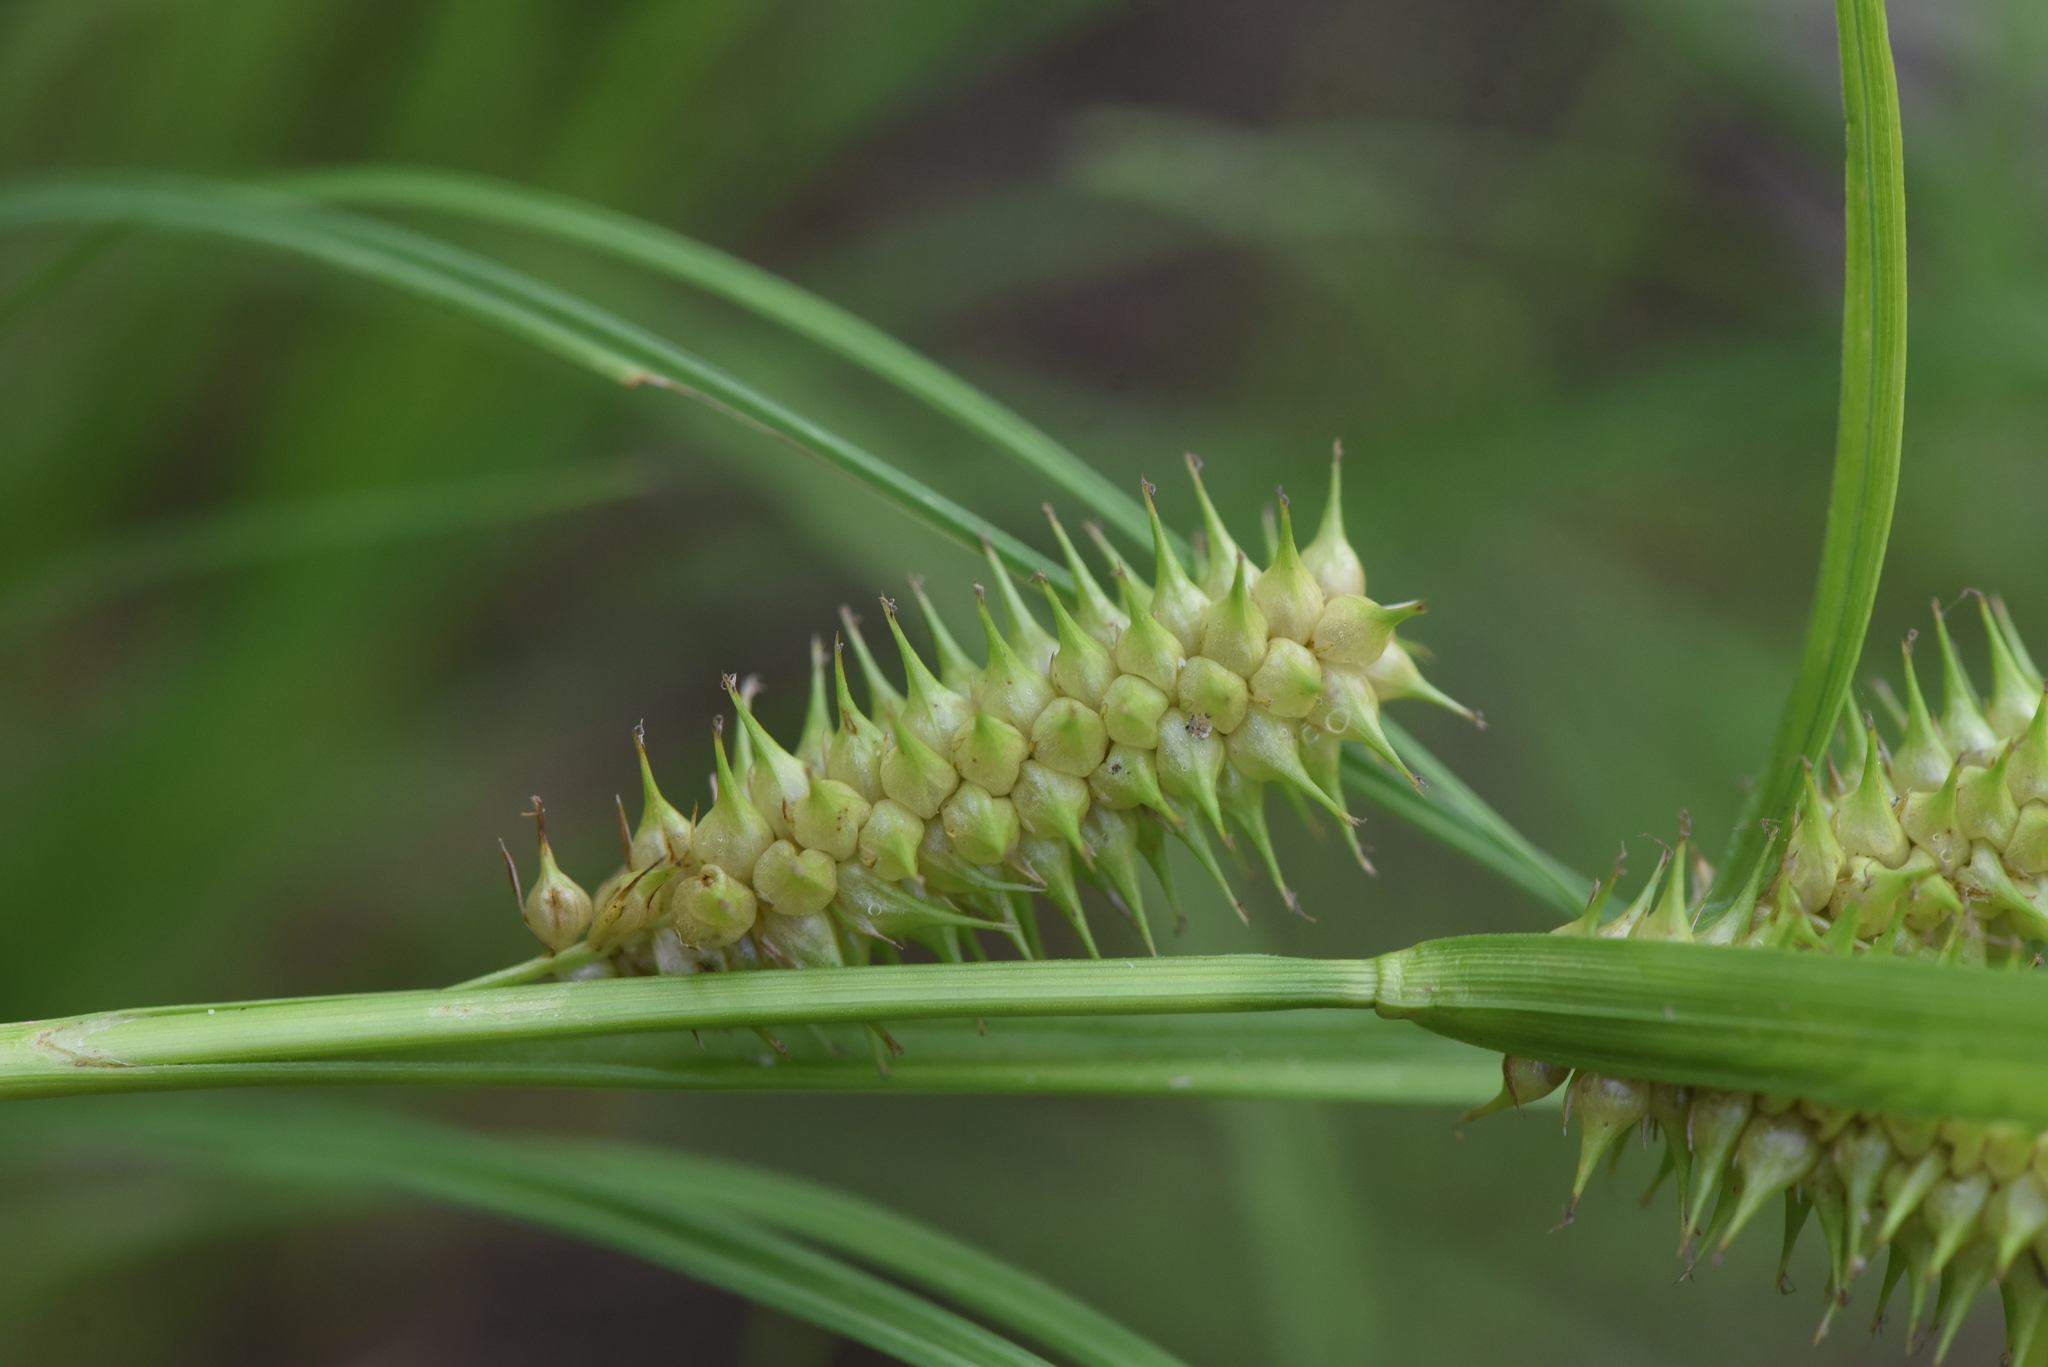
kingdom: Plantae
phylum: Tracheophyta
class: Liliopsida
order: Poales
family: Cyperaceae
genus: Carex
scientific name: Carex retrorsa
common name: Knot-sheath sedge
